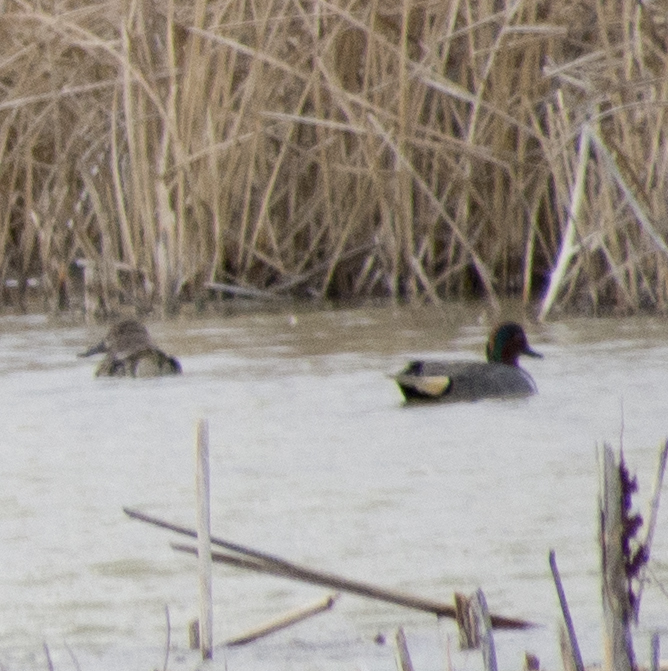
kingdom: Animalia
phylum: Chordata
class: Aves
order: Anseriformes
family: Anatidae
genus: Anas
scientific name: Anas crecca
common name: Eurasian teal
